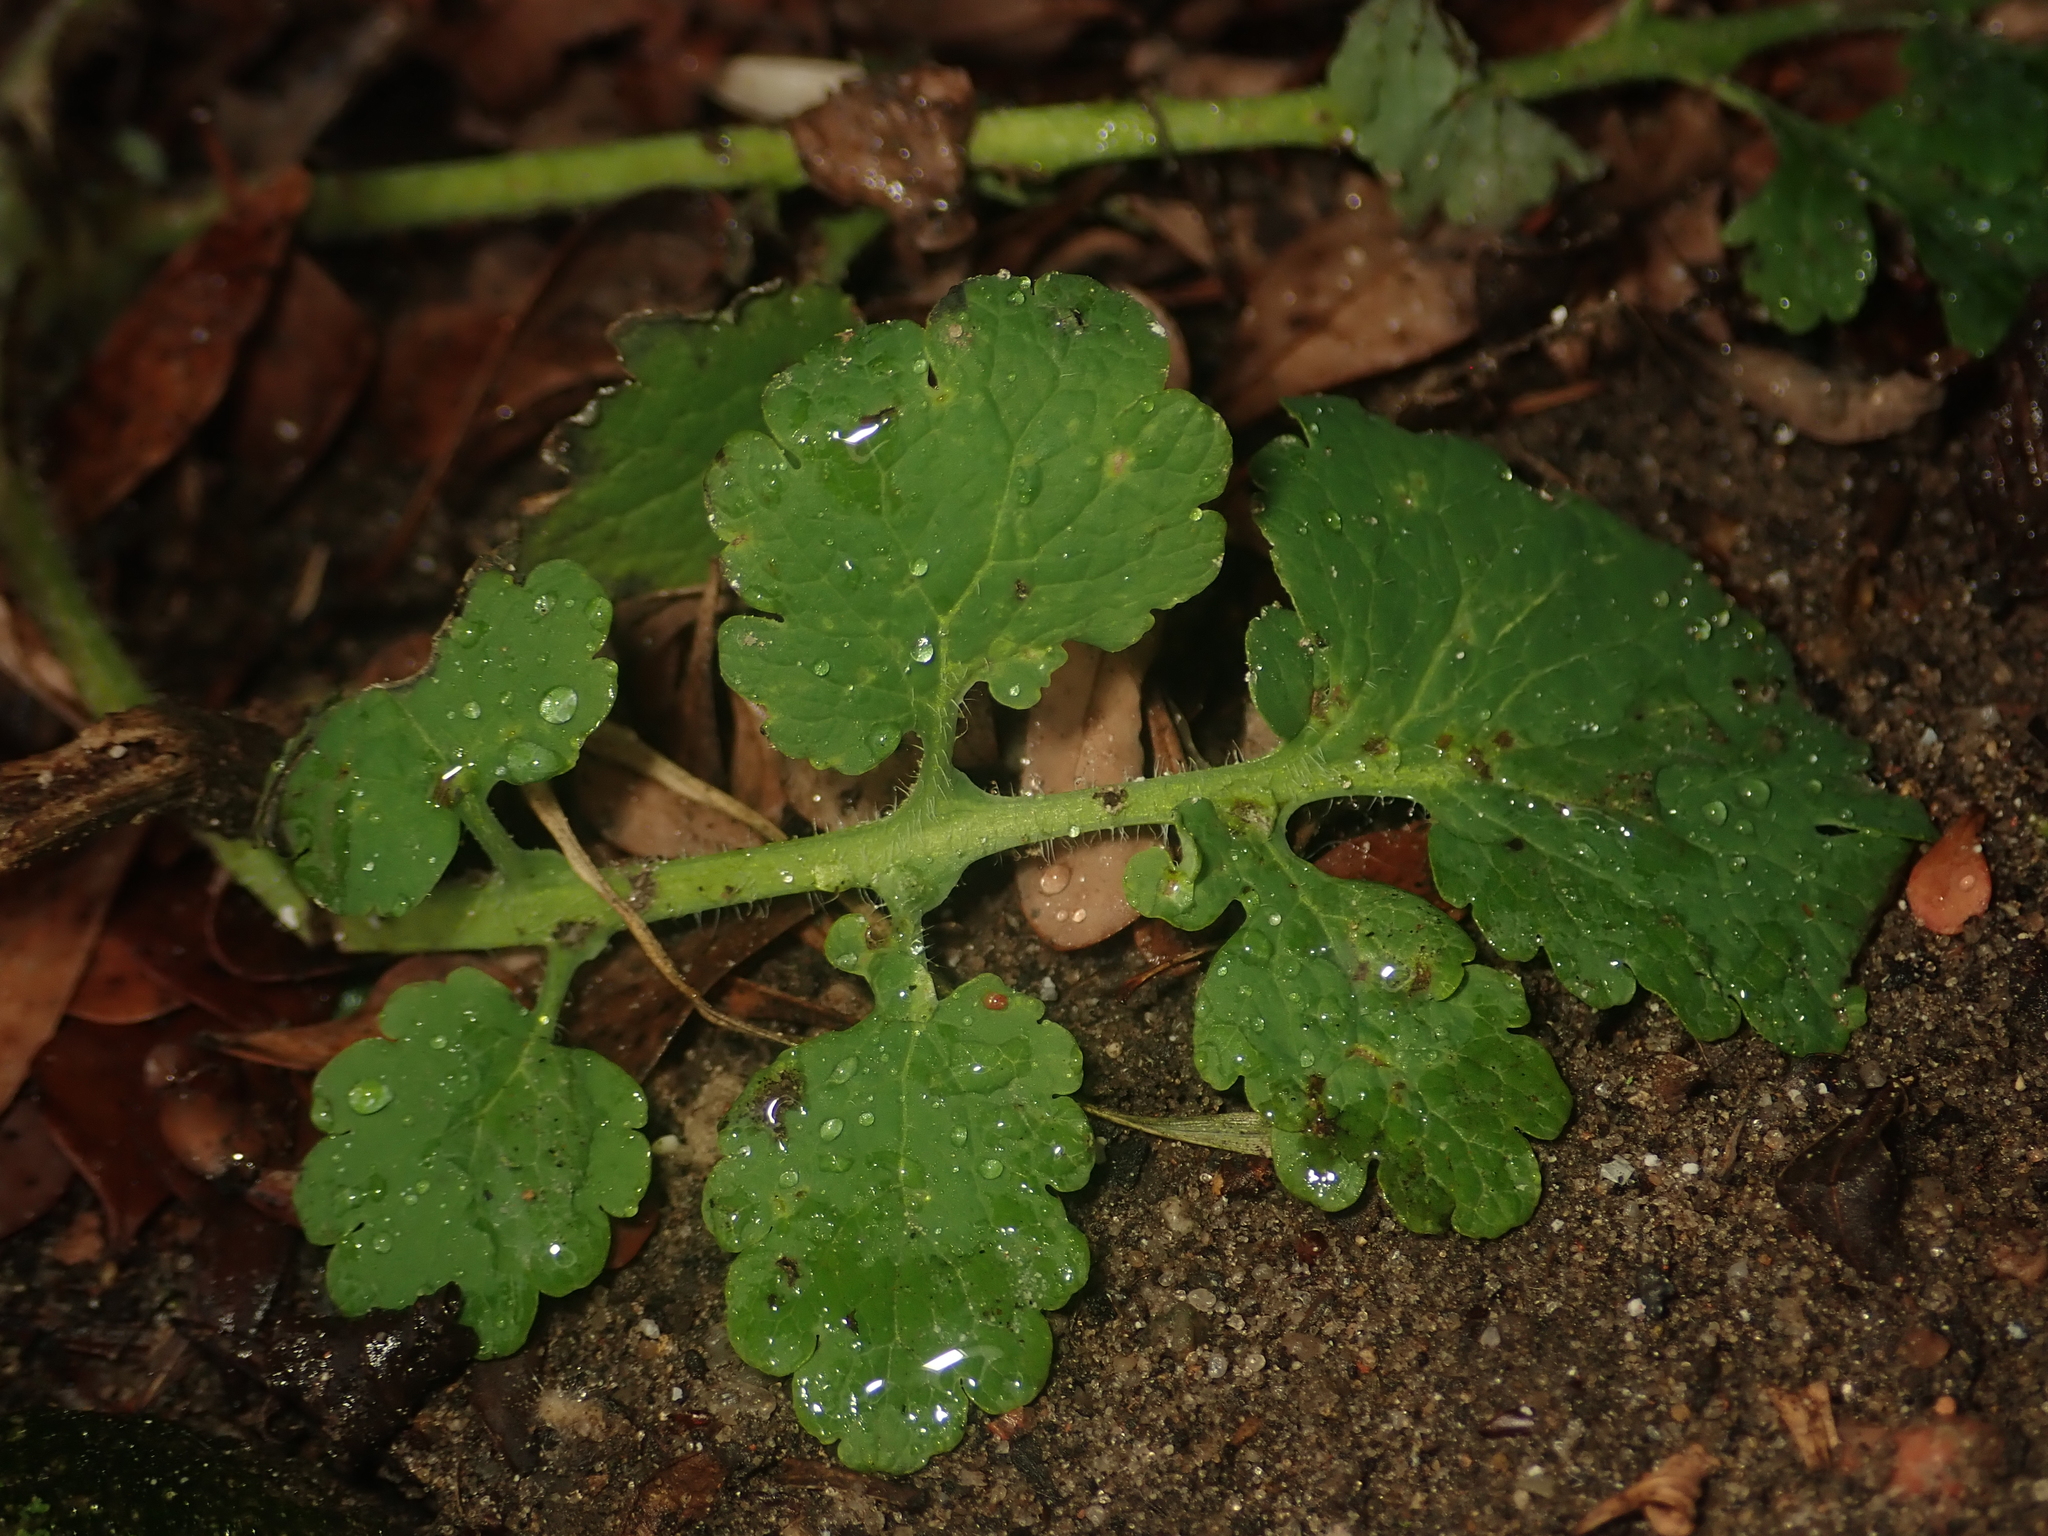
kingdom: Plantae
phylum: Tracheophyta
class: Magnoliopsida
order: Ranunculales
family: Papaveraceae
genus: Chelidonium
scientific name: Chelidonium majus
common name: Greater celandine
